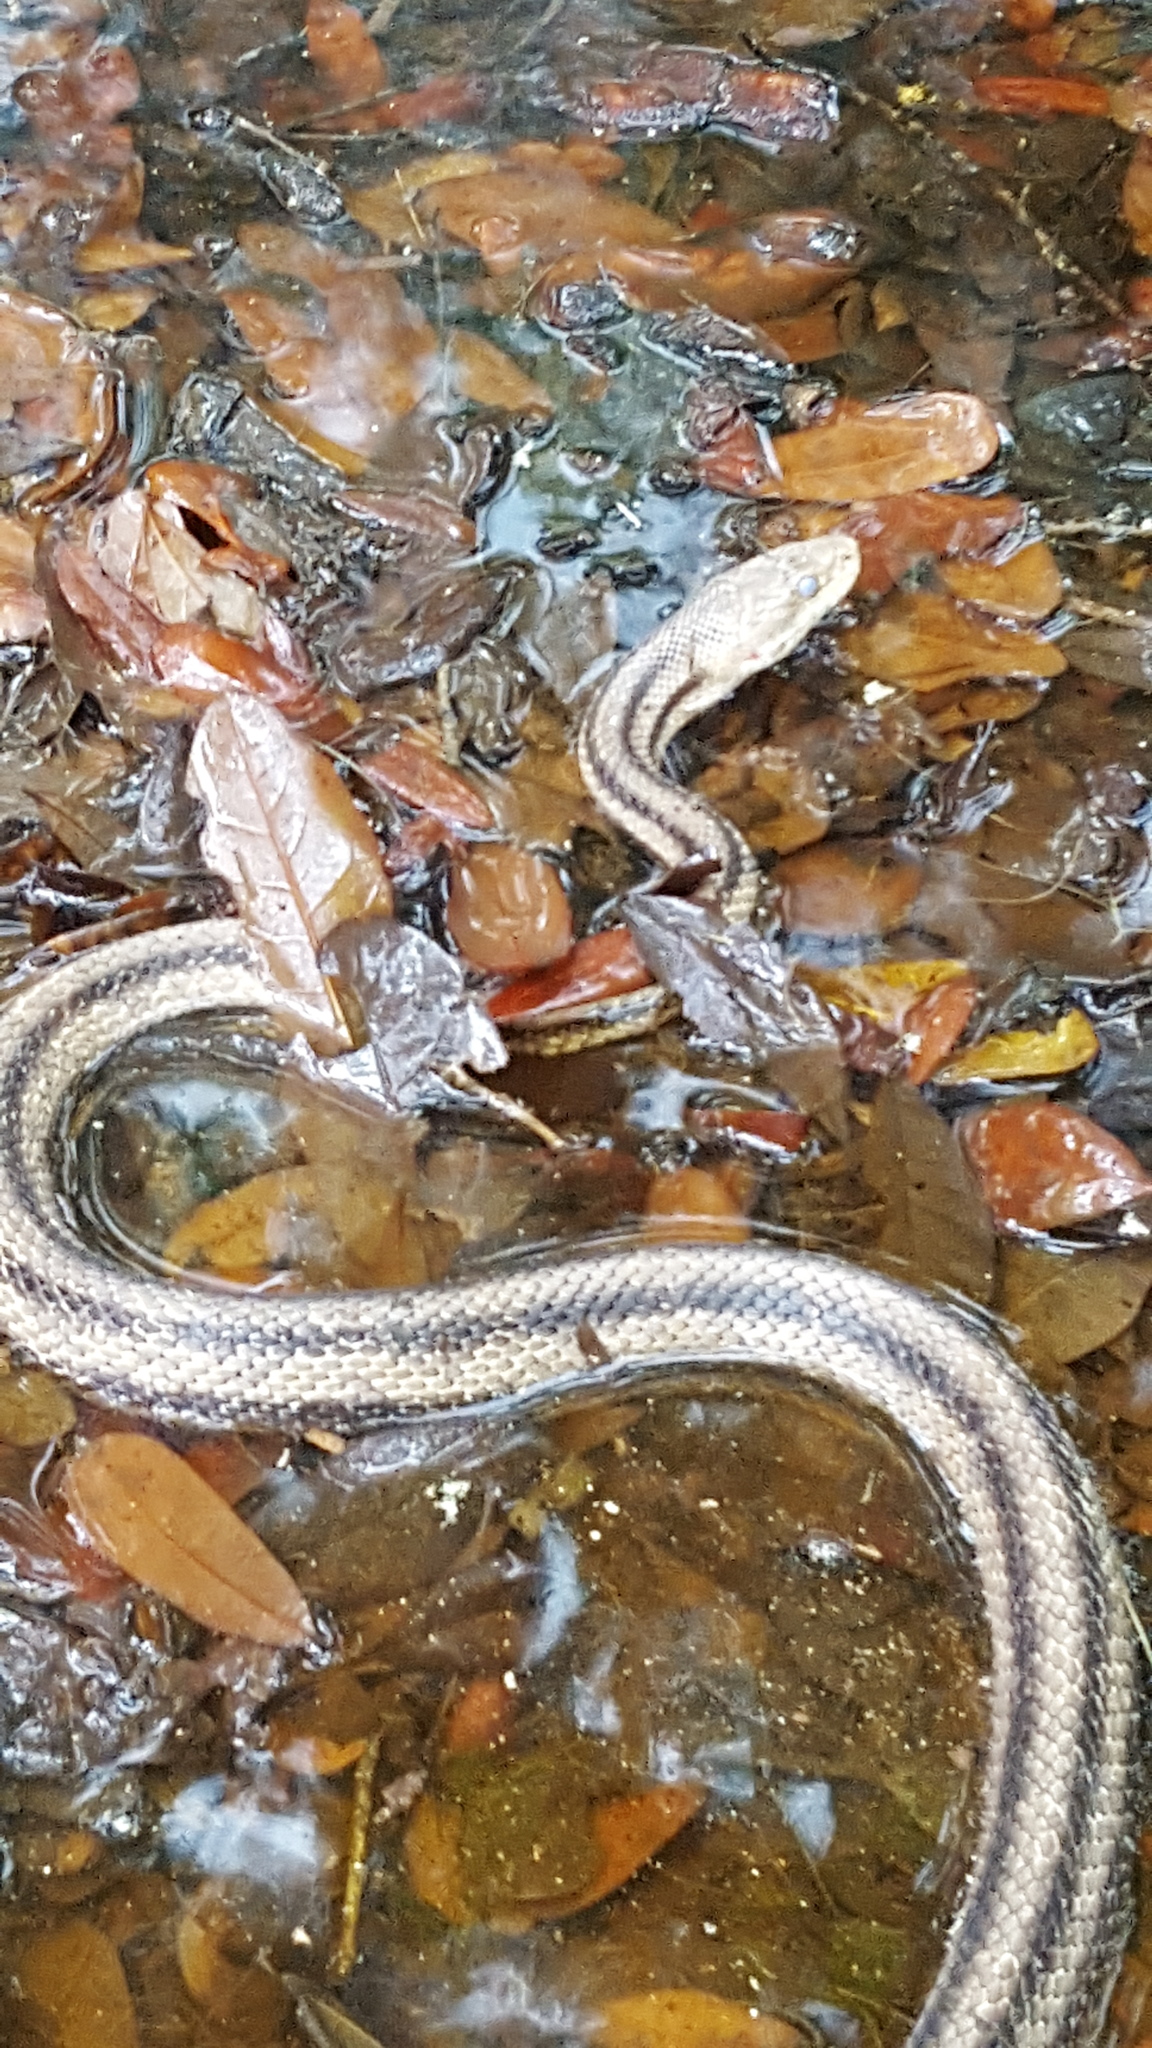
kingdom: Animalia
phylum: Chordata
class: Squamata
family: Colubridae
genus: Pantherophis
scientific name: Pantherophis alleghaniensis
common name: Eastern rat snake
